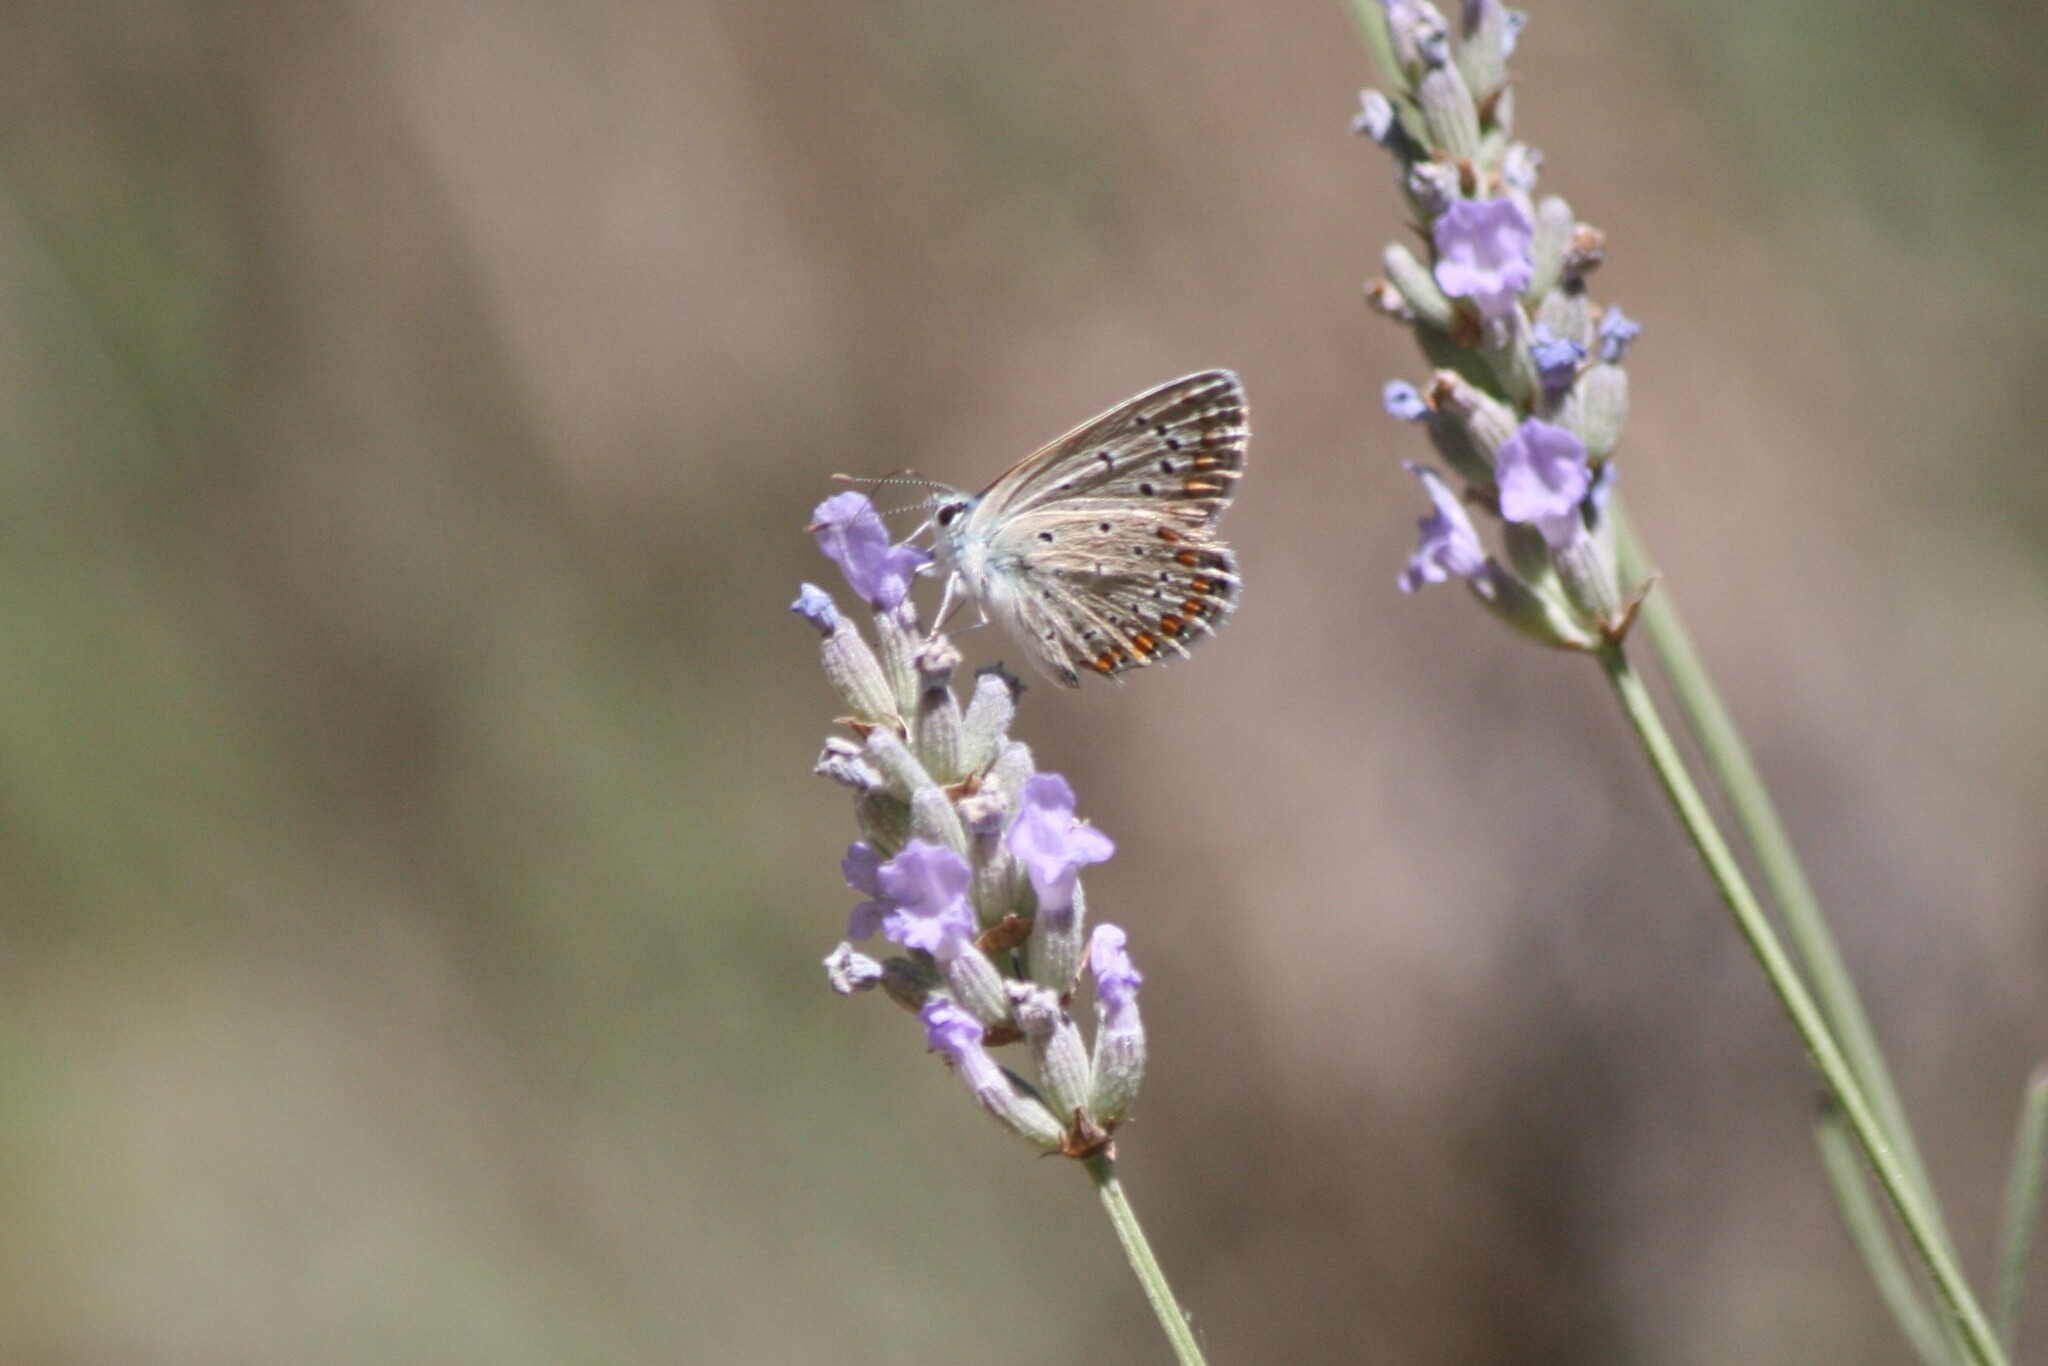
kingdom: Animalia
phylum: Arthropoda
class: Insecta
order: Lepidoptera
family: Lycaenidae
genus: Polyommatus
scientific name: Polyommatus celina
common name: Austaut's blue
